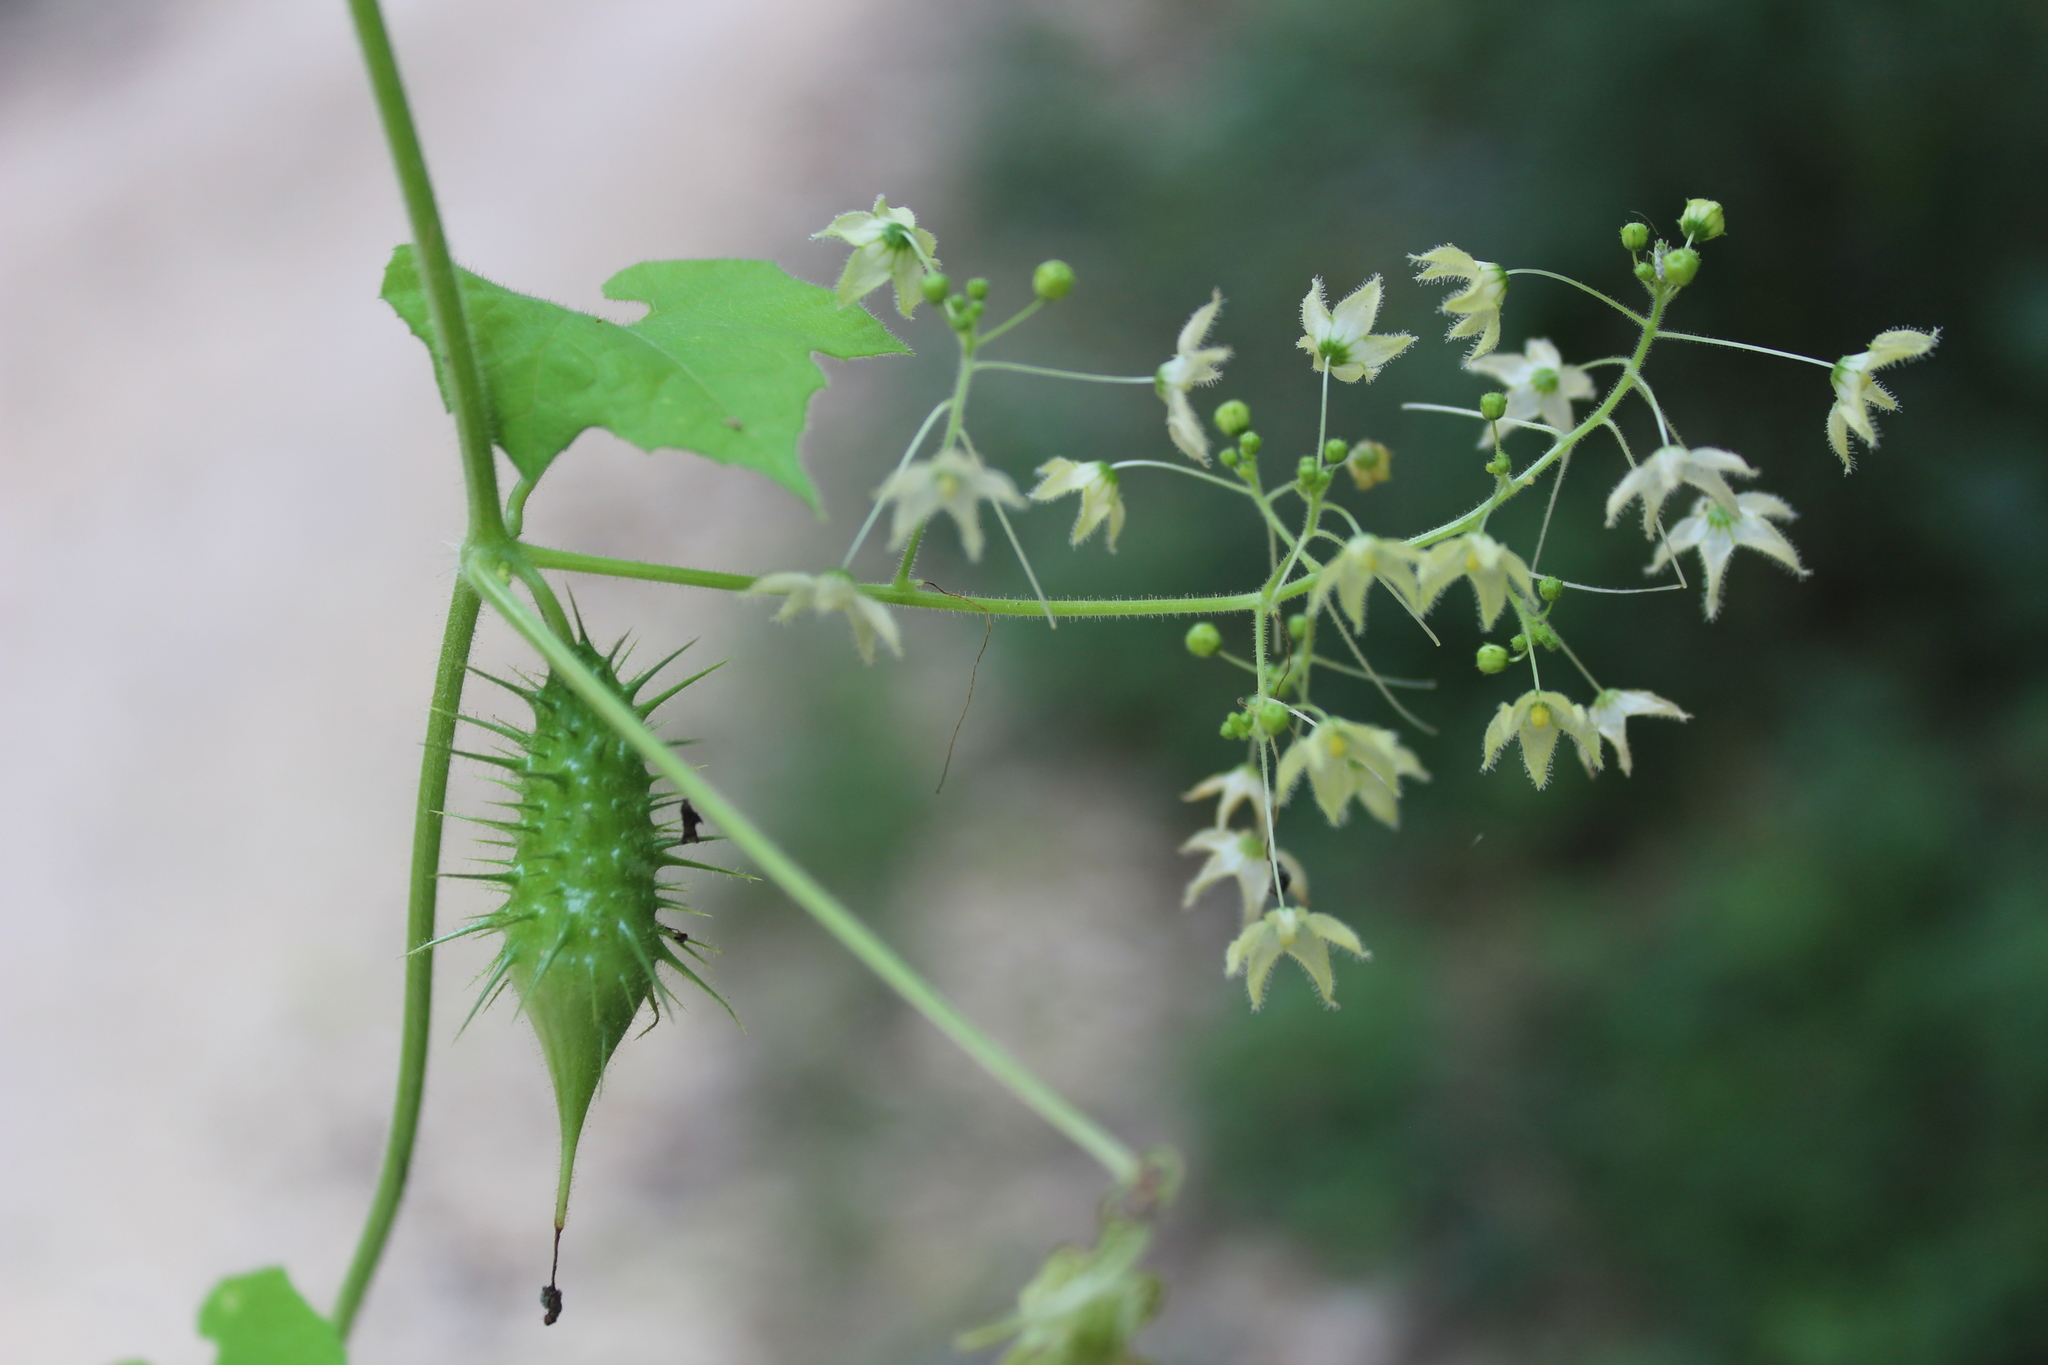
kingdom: Plantae
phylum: Tracheophyta
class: Magnoliopsida
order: Cucurbitales
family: Cucurbitaceae
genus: Echinopepon
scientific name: Echinopepon racemosus
